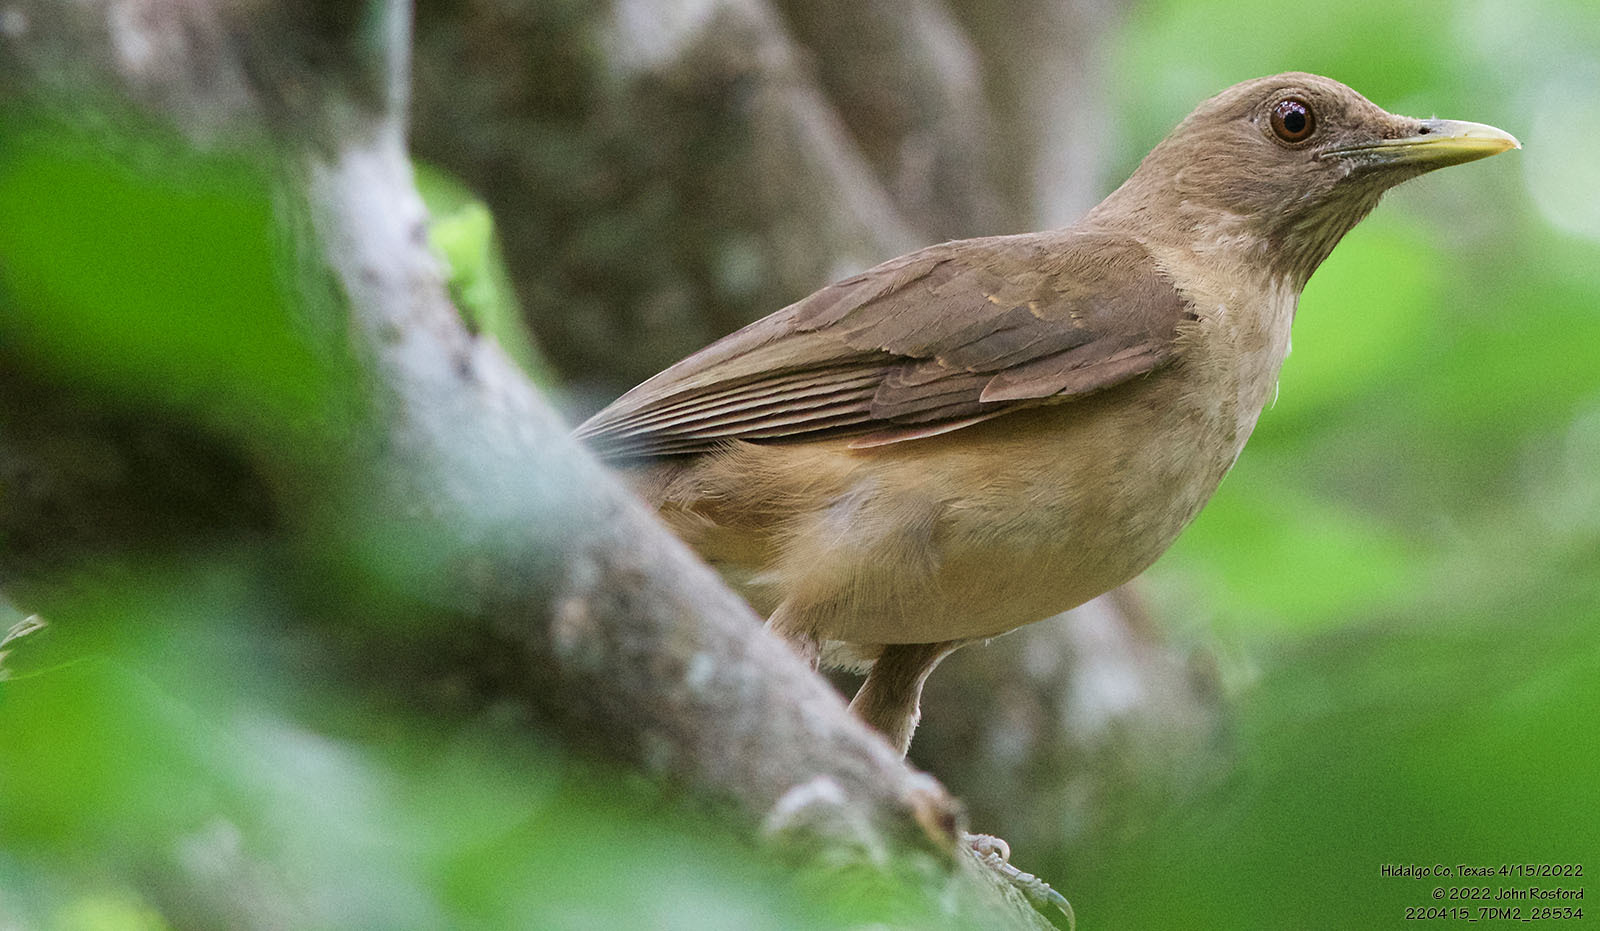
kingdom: Animalia
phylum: Chordata
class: Aves
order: Passeriformes
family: Turdidae
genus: Turdus
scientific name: Turdus grayi
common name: Clay-colored thrush
